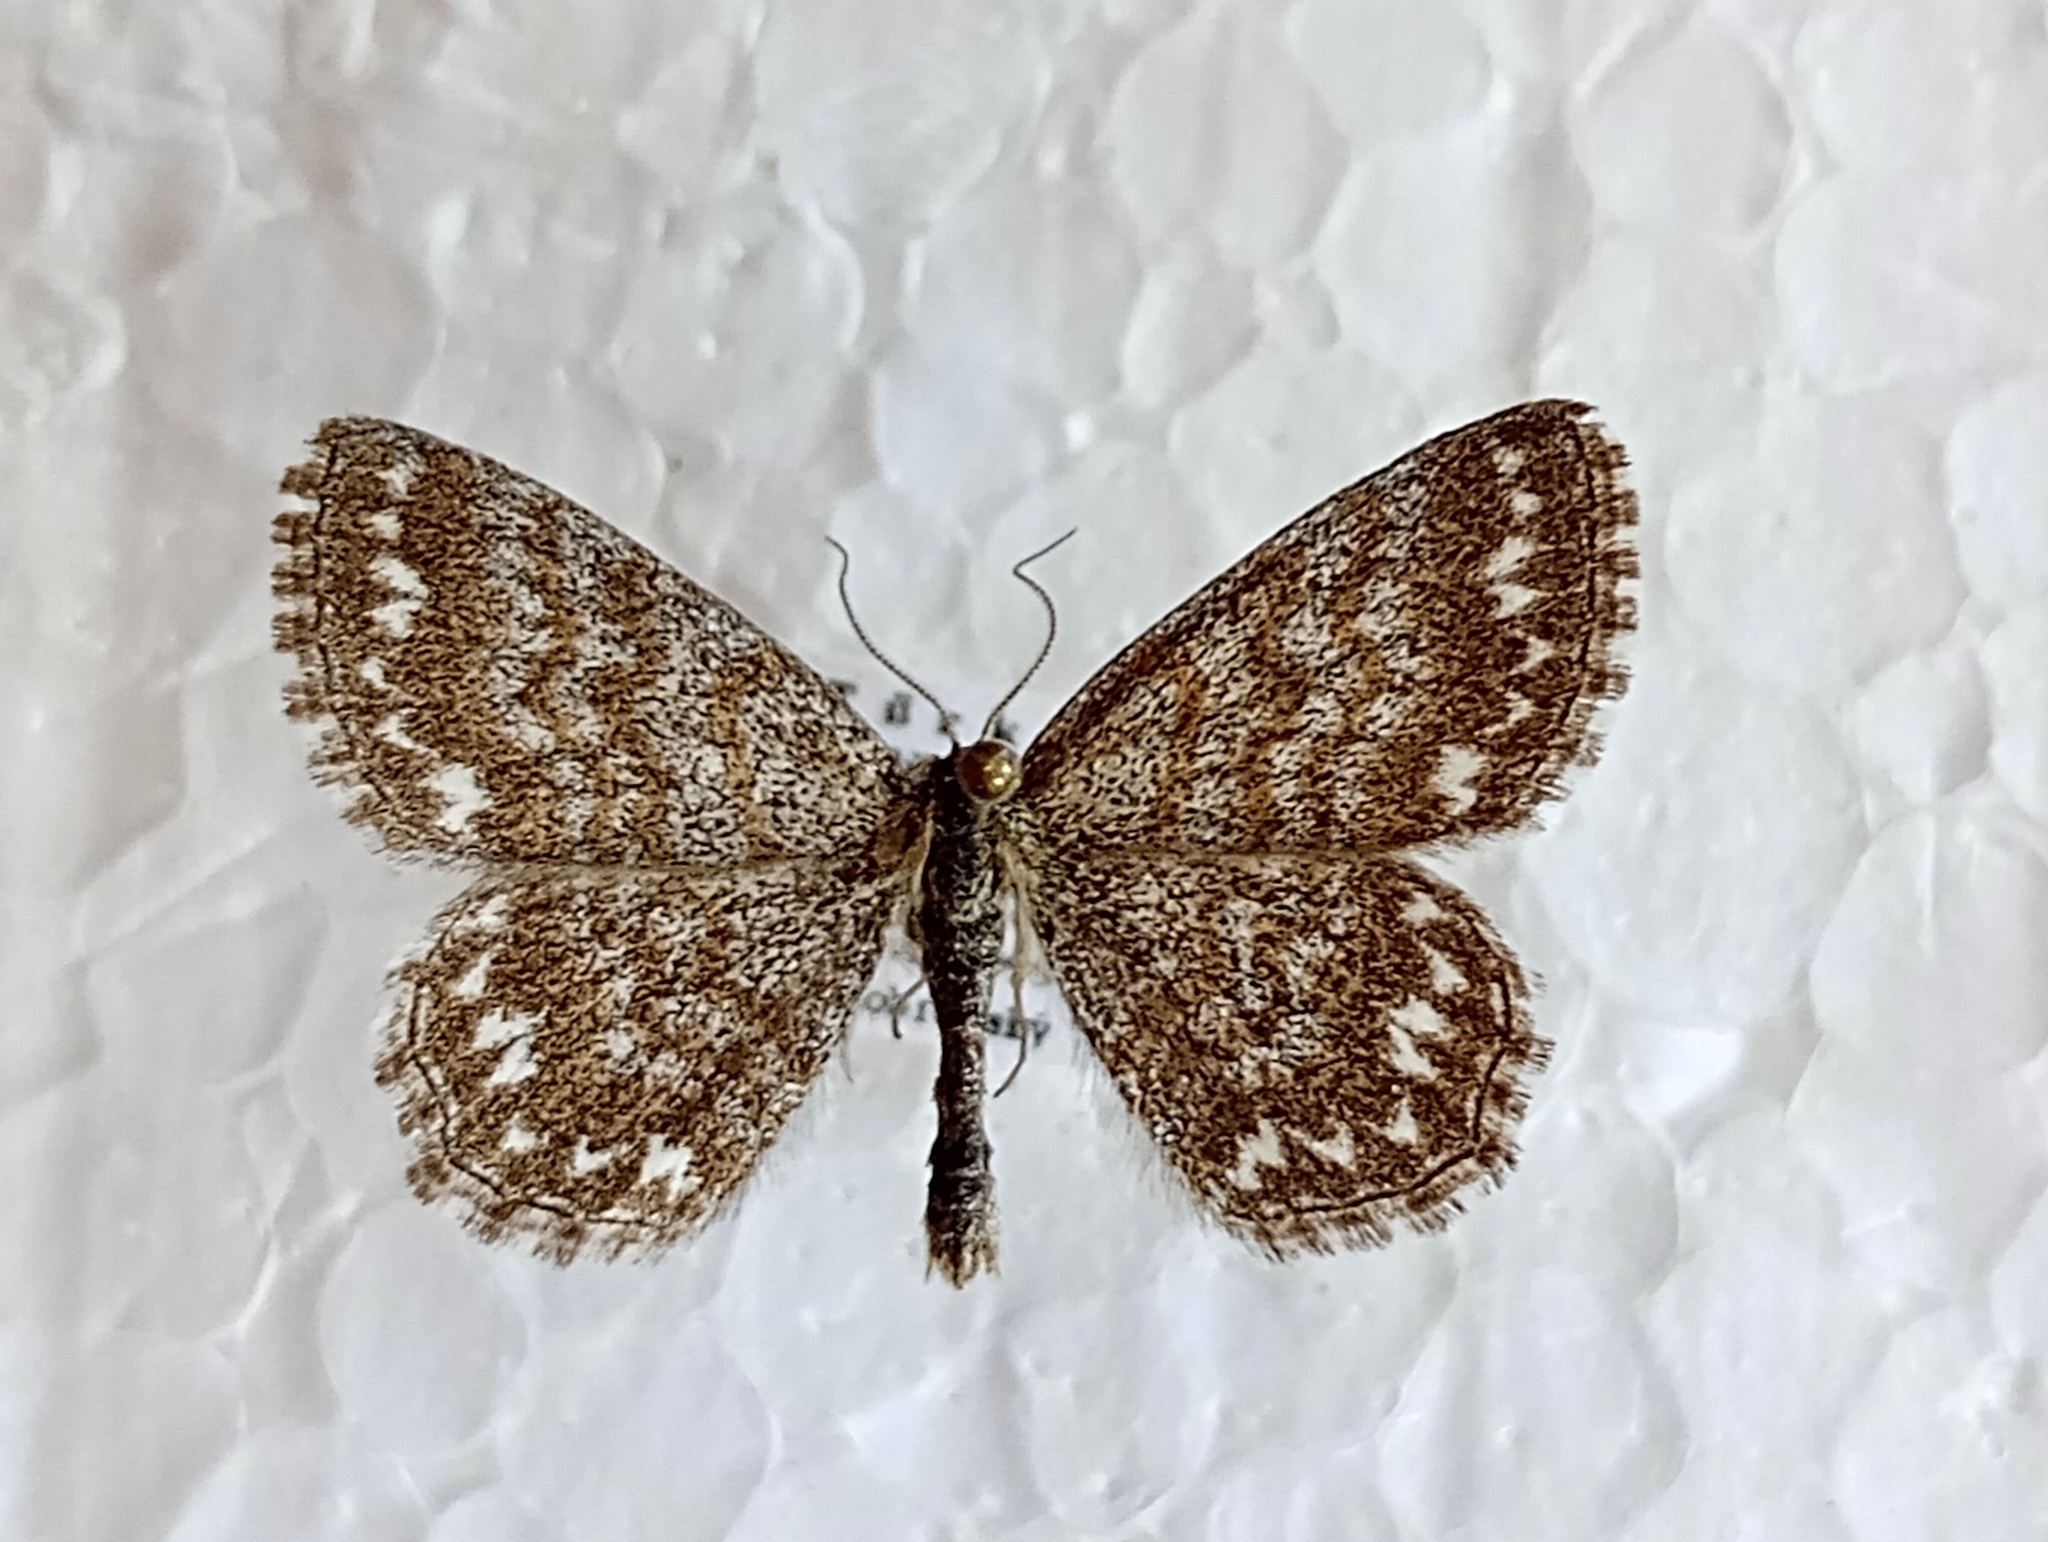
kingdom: Animalia
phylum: Arthropoda
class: Insecta
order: Lepidoptera
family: Geometridae
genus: Scopula
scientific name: Scopula immorata
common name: Lewes wave
